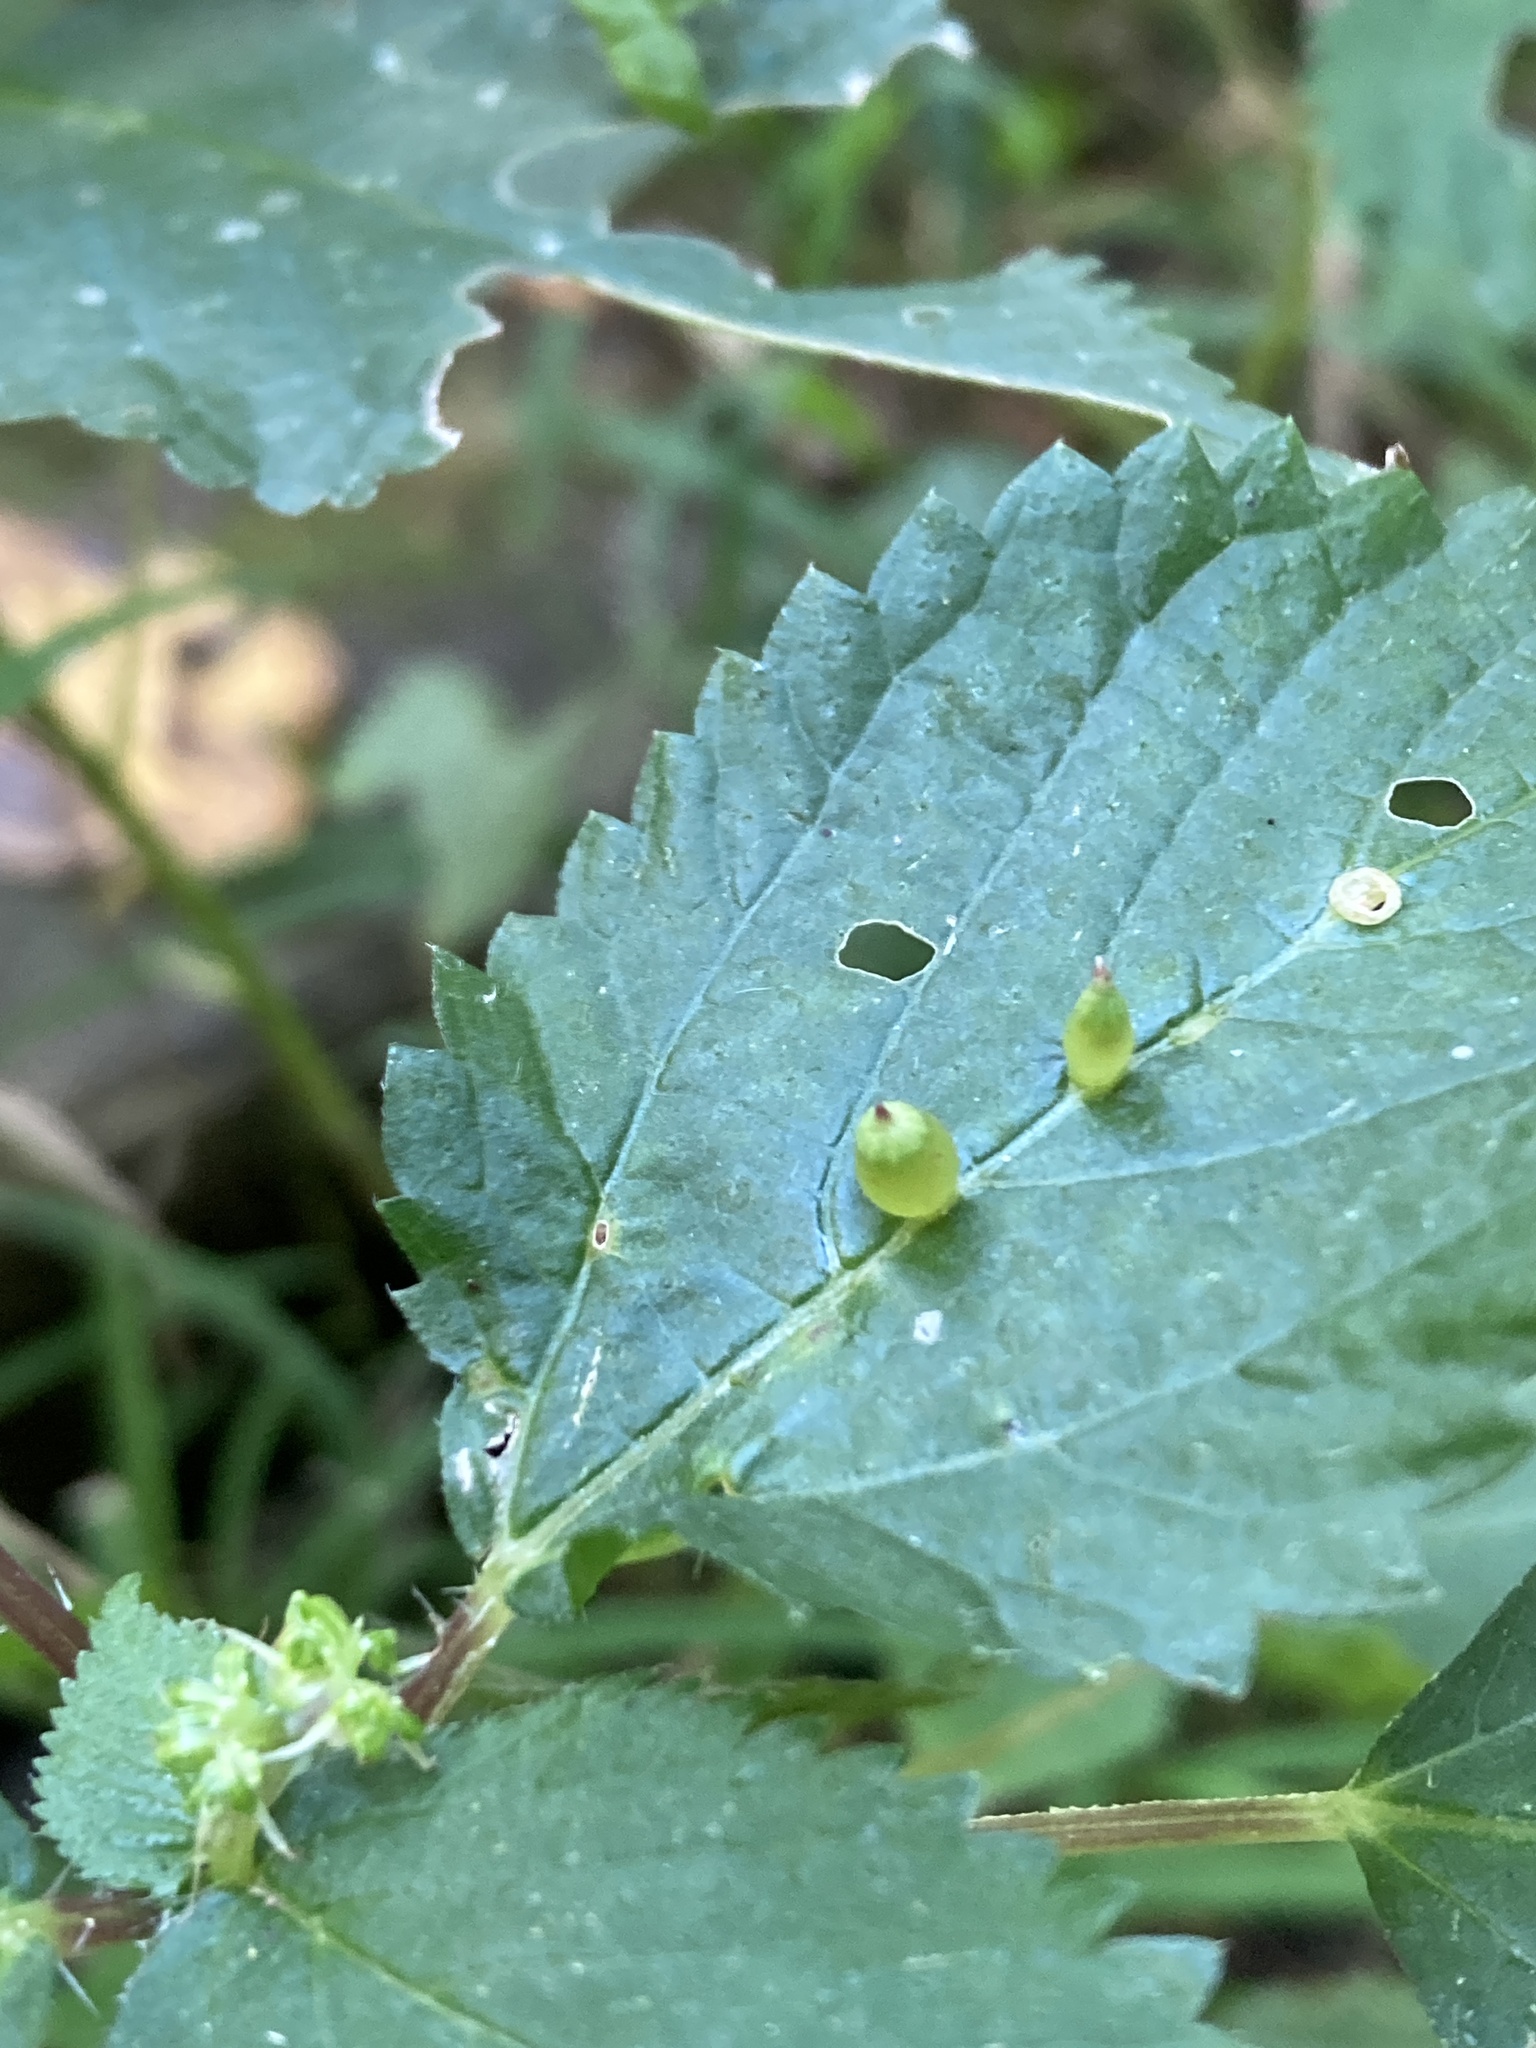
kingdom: Animalia
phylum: Arthropoda
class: Insecta
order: Diptera
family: Cecidomyiidae
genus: Dasineura
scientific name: Dasineura investita
